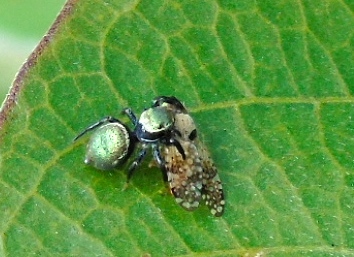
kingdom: Animalia
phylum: Arthropoda
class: Arachnida
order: Araneae
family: Salticidae
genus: Sassacus
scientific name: Sassacus
